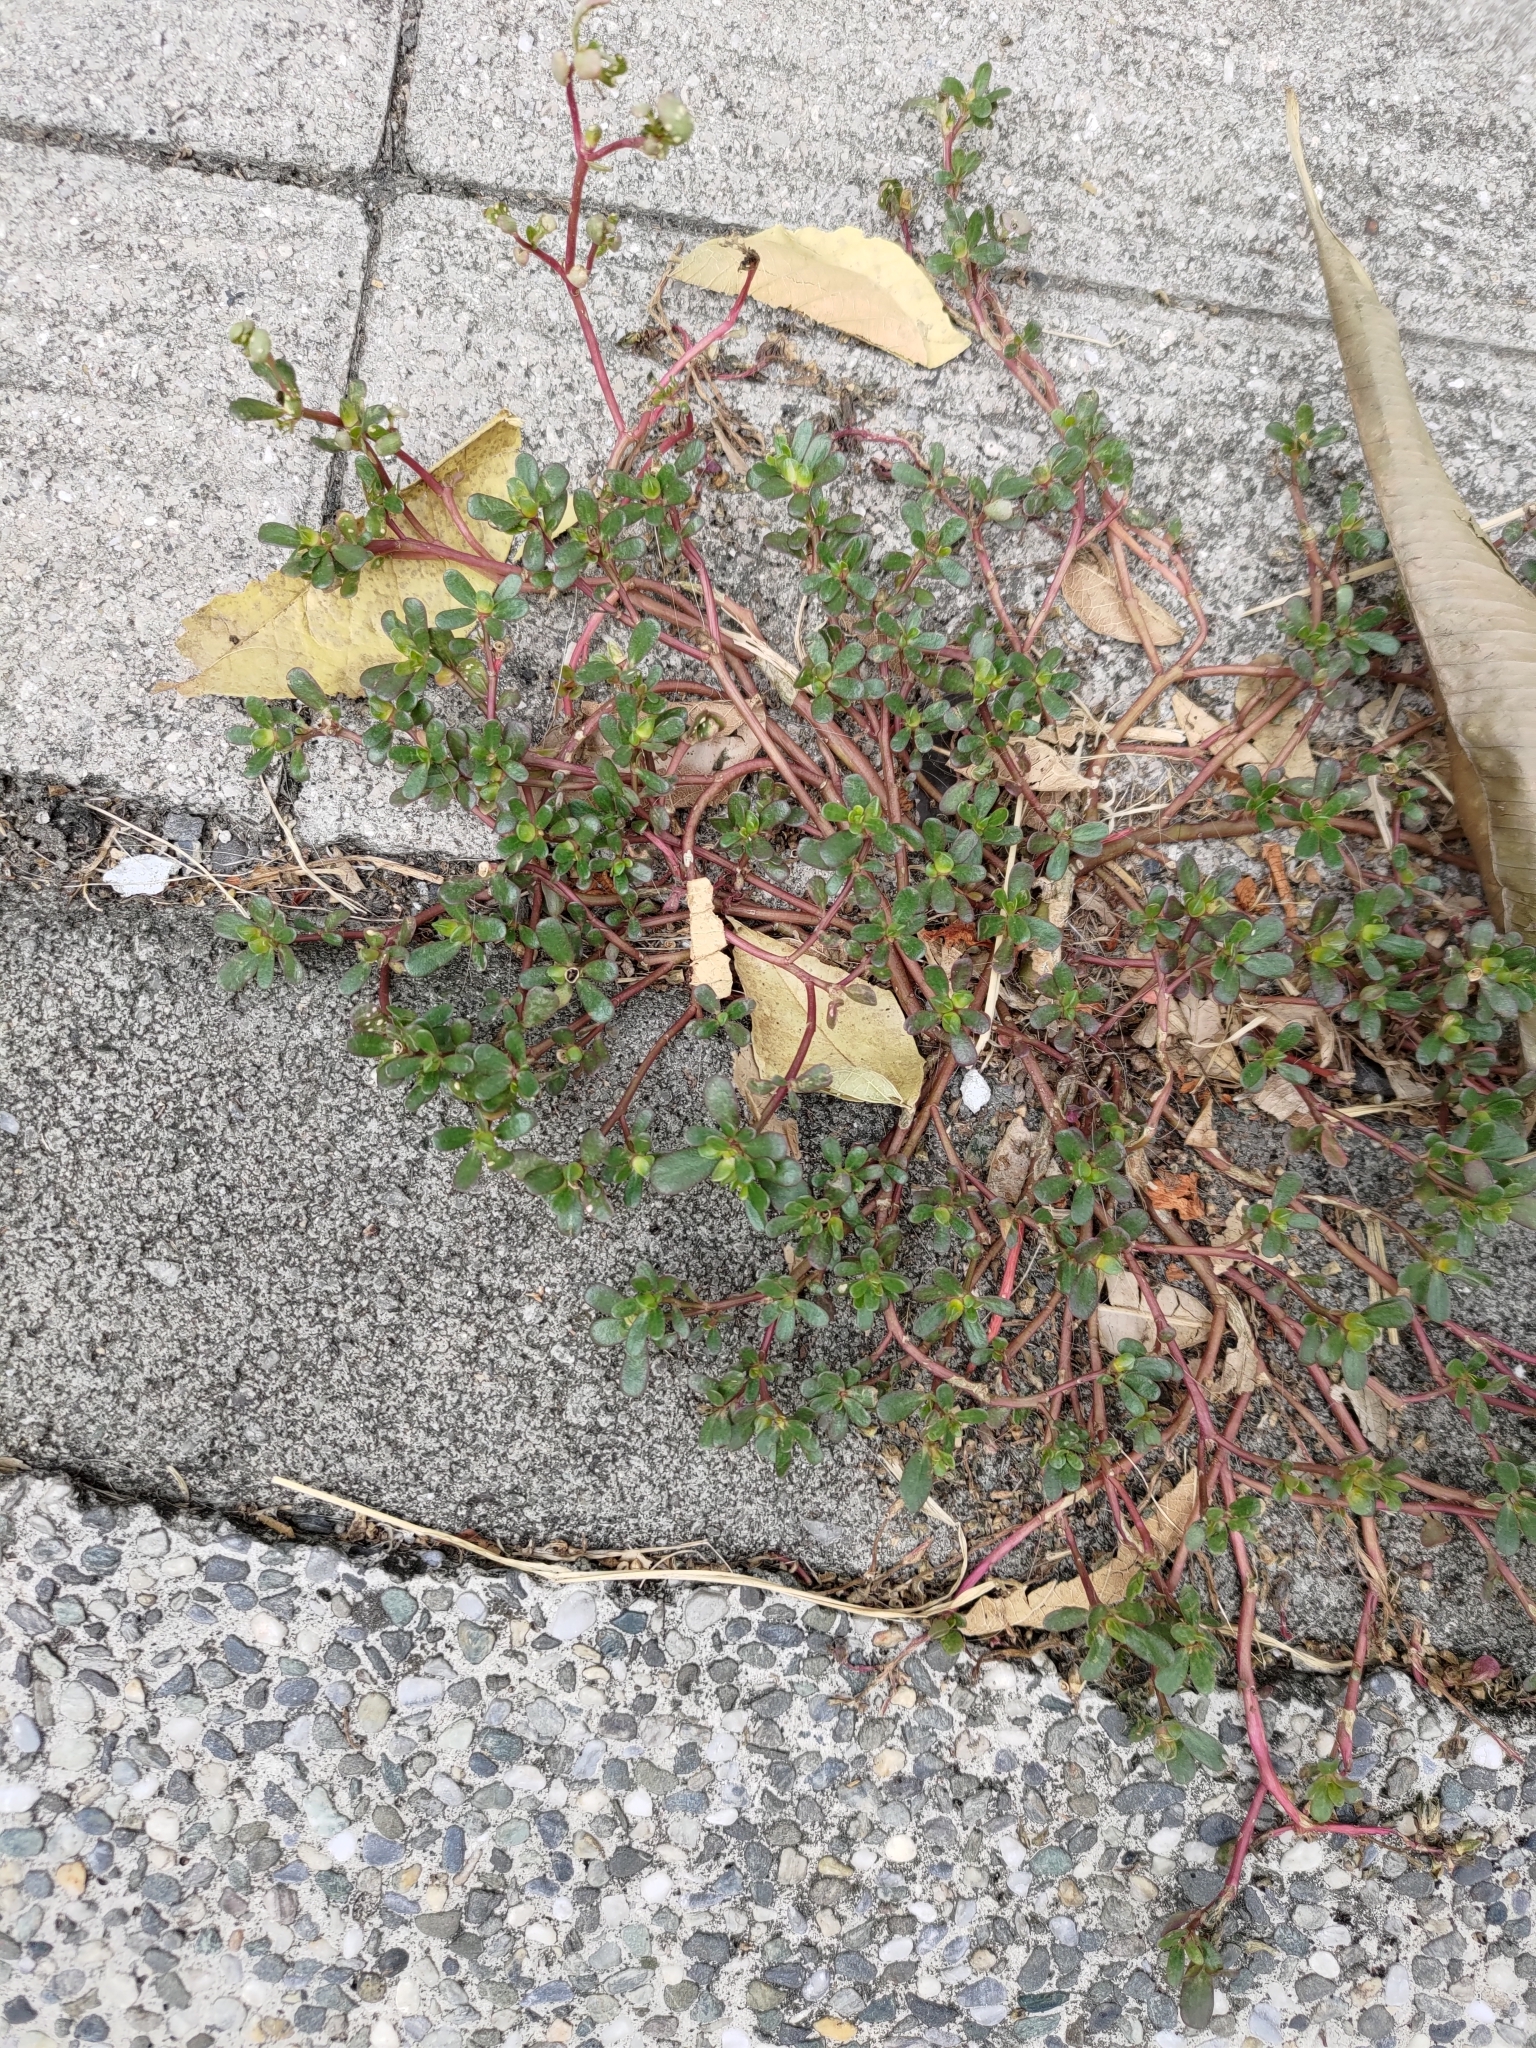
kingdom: Plantae
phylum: Tracheophyta
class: Magnoliopsida
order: Caryophyllales
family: Portulacaceae
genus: Portulaca
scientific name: Portulaca oleracea
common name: Common purslane
